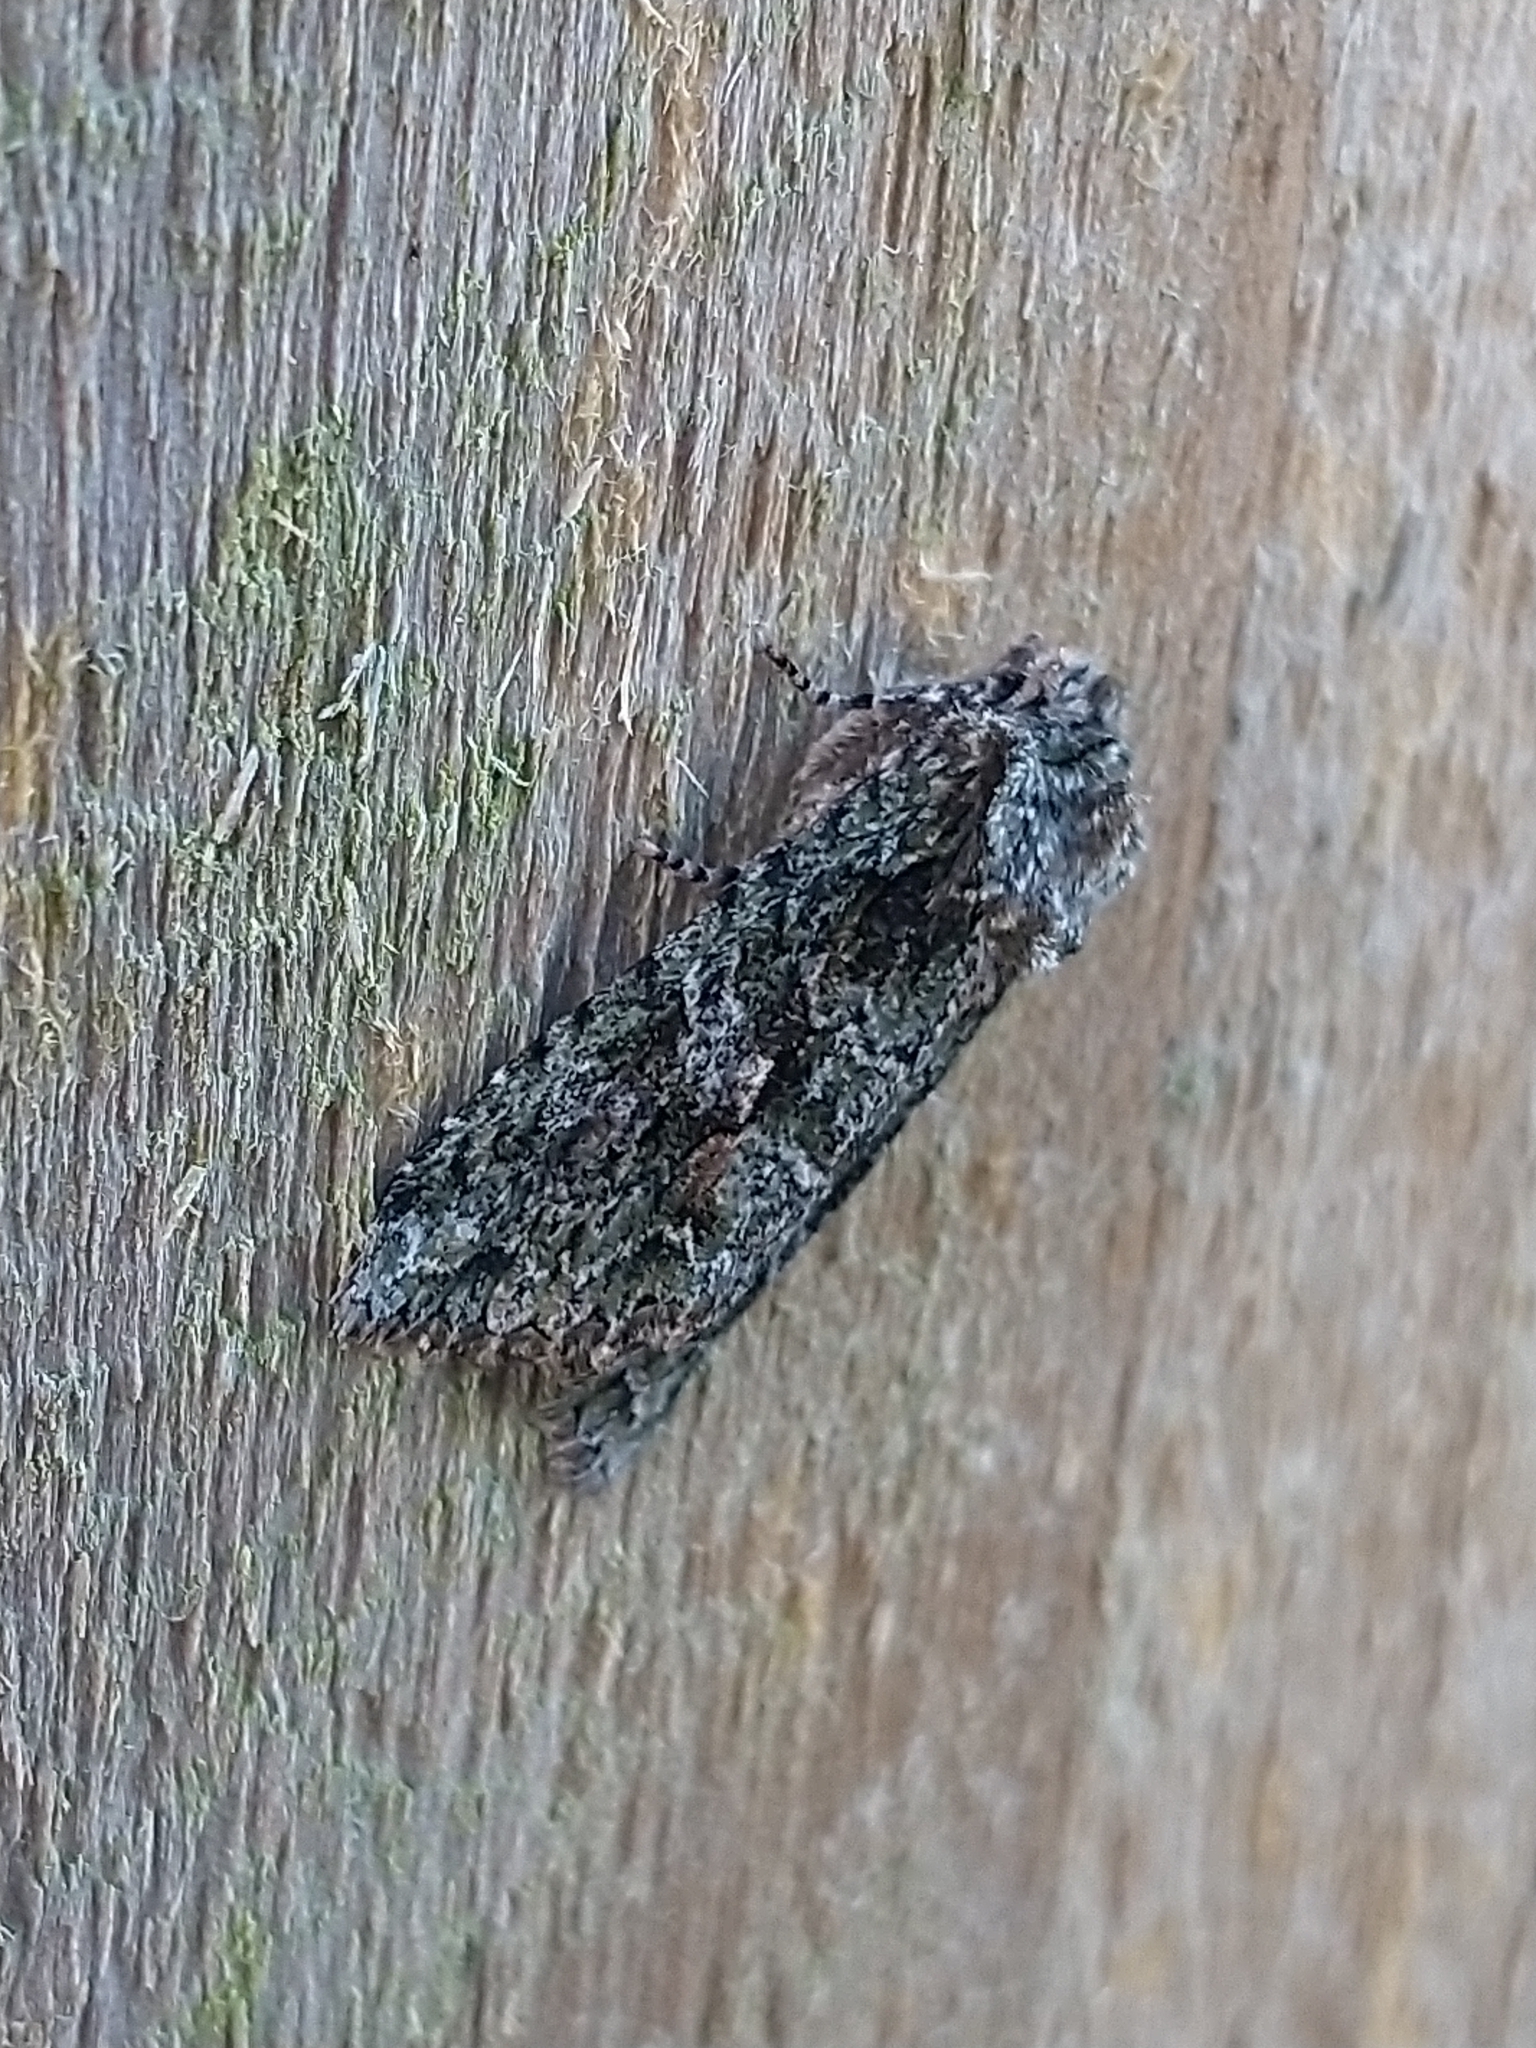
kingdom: Animalia
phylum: Arthropoda
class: Insecta
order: Lepidoptera
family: Noctuidae
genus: Dryobotodes
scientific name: Dryobotodes eremita
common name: Brindled green
